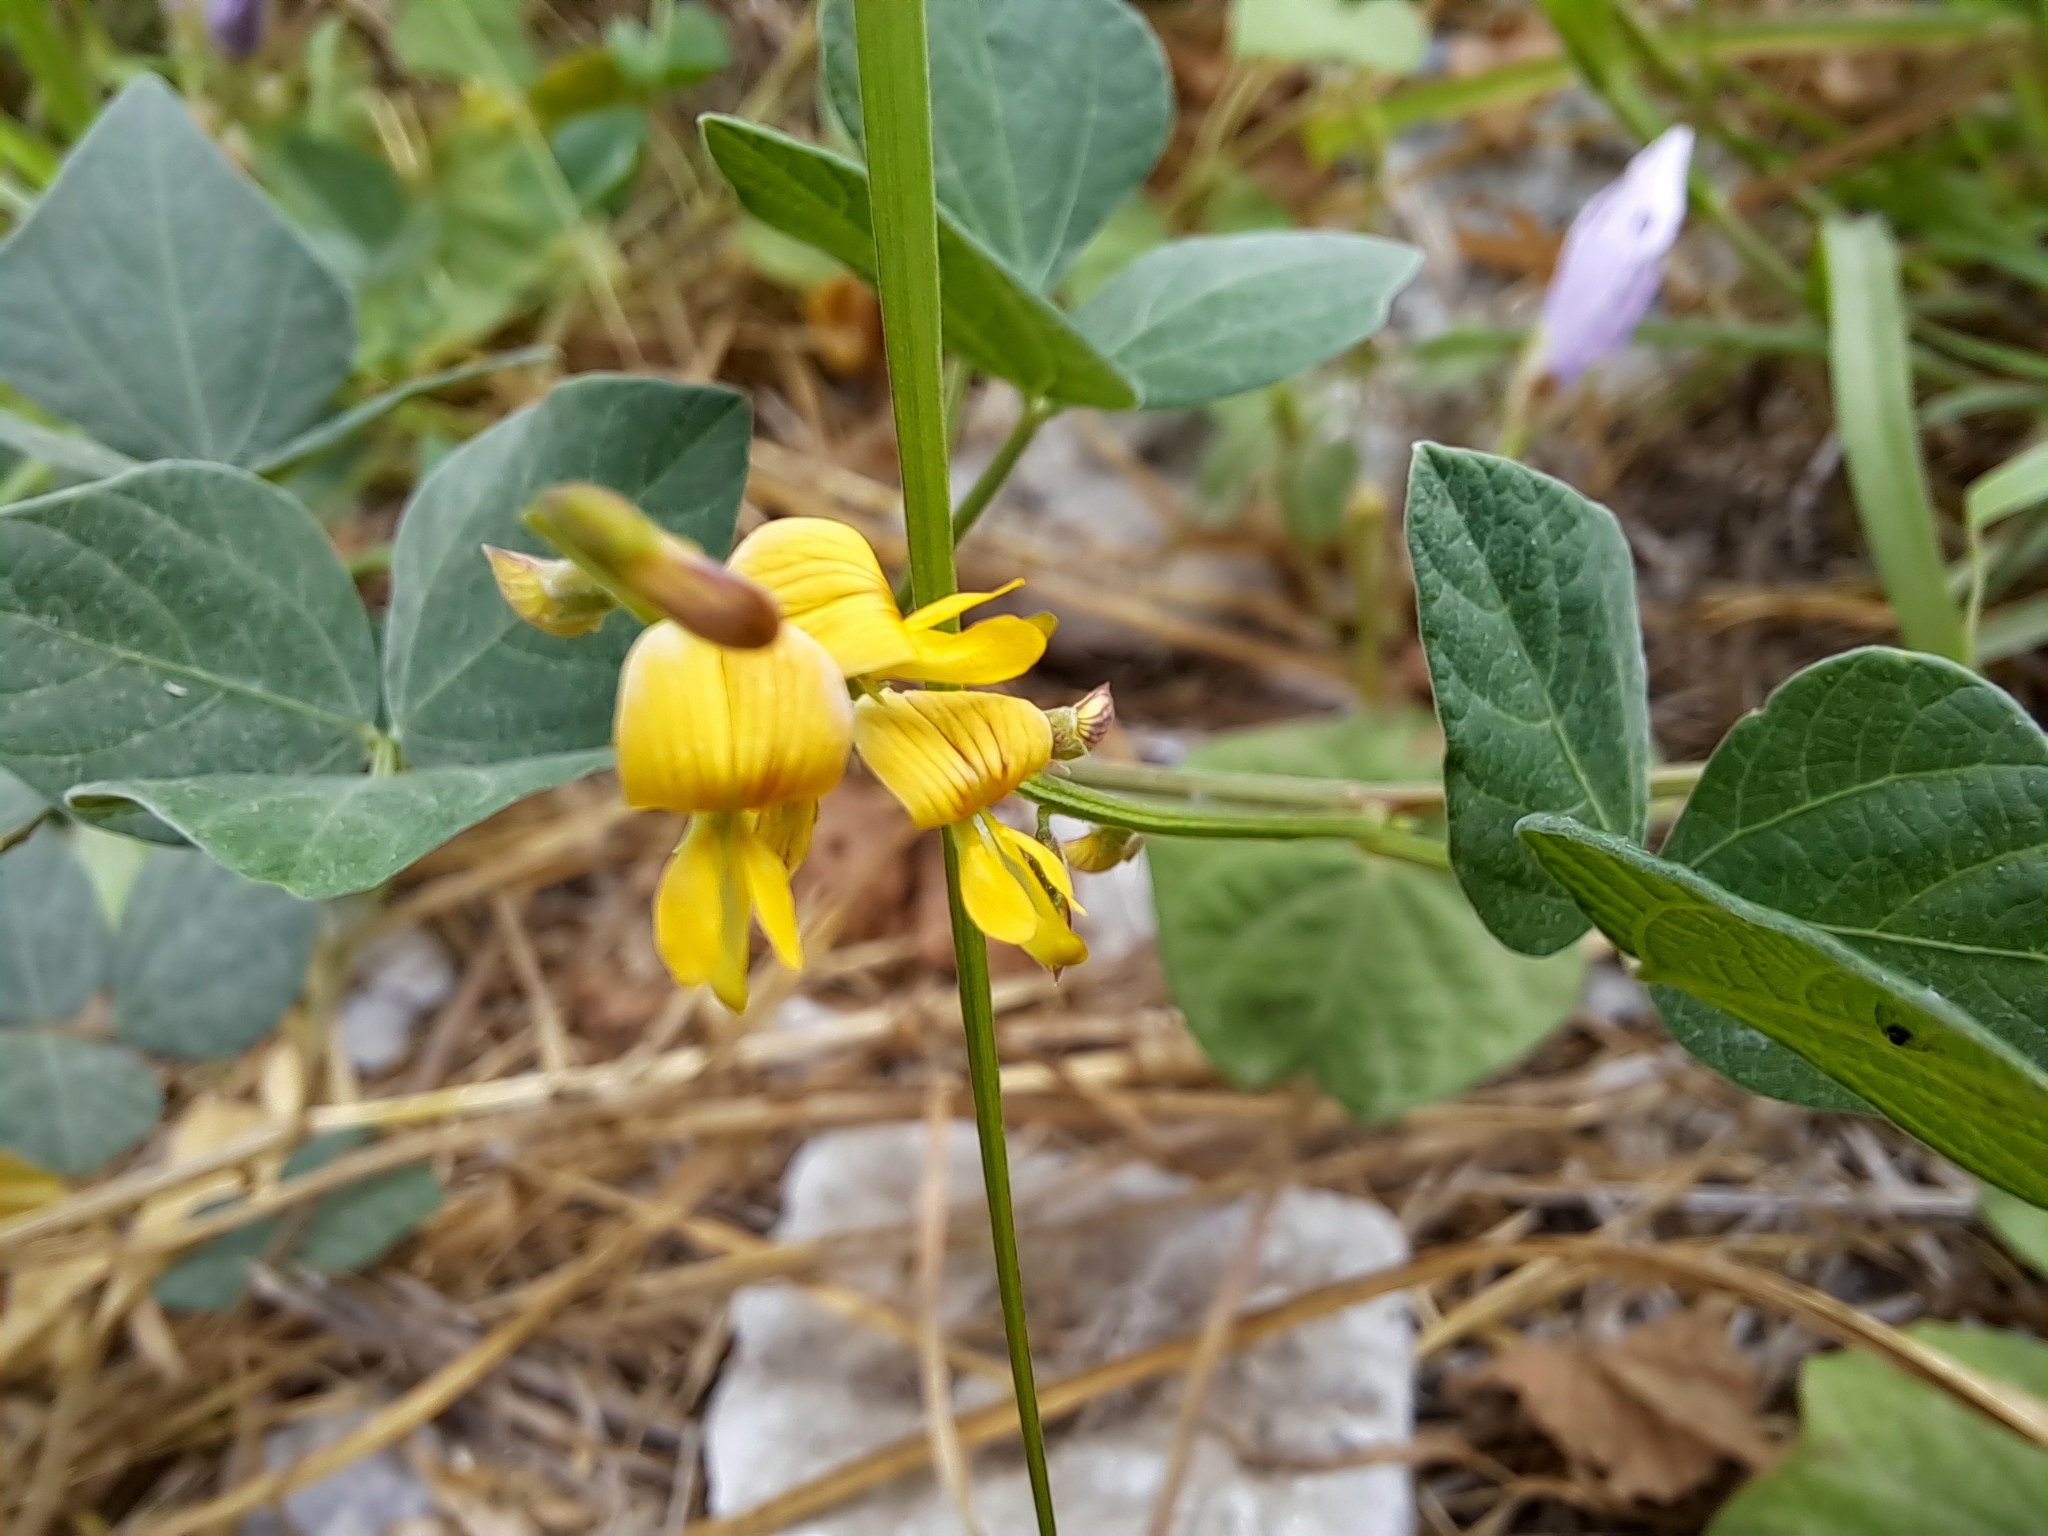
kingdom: Plantae
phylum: Tracheophyta
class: Magnoliopsida
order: Fabales
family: Fabaceae
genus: Rhynchosia
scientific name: Rhynchosia minima
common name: Least snoutbean
